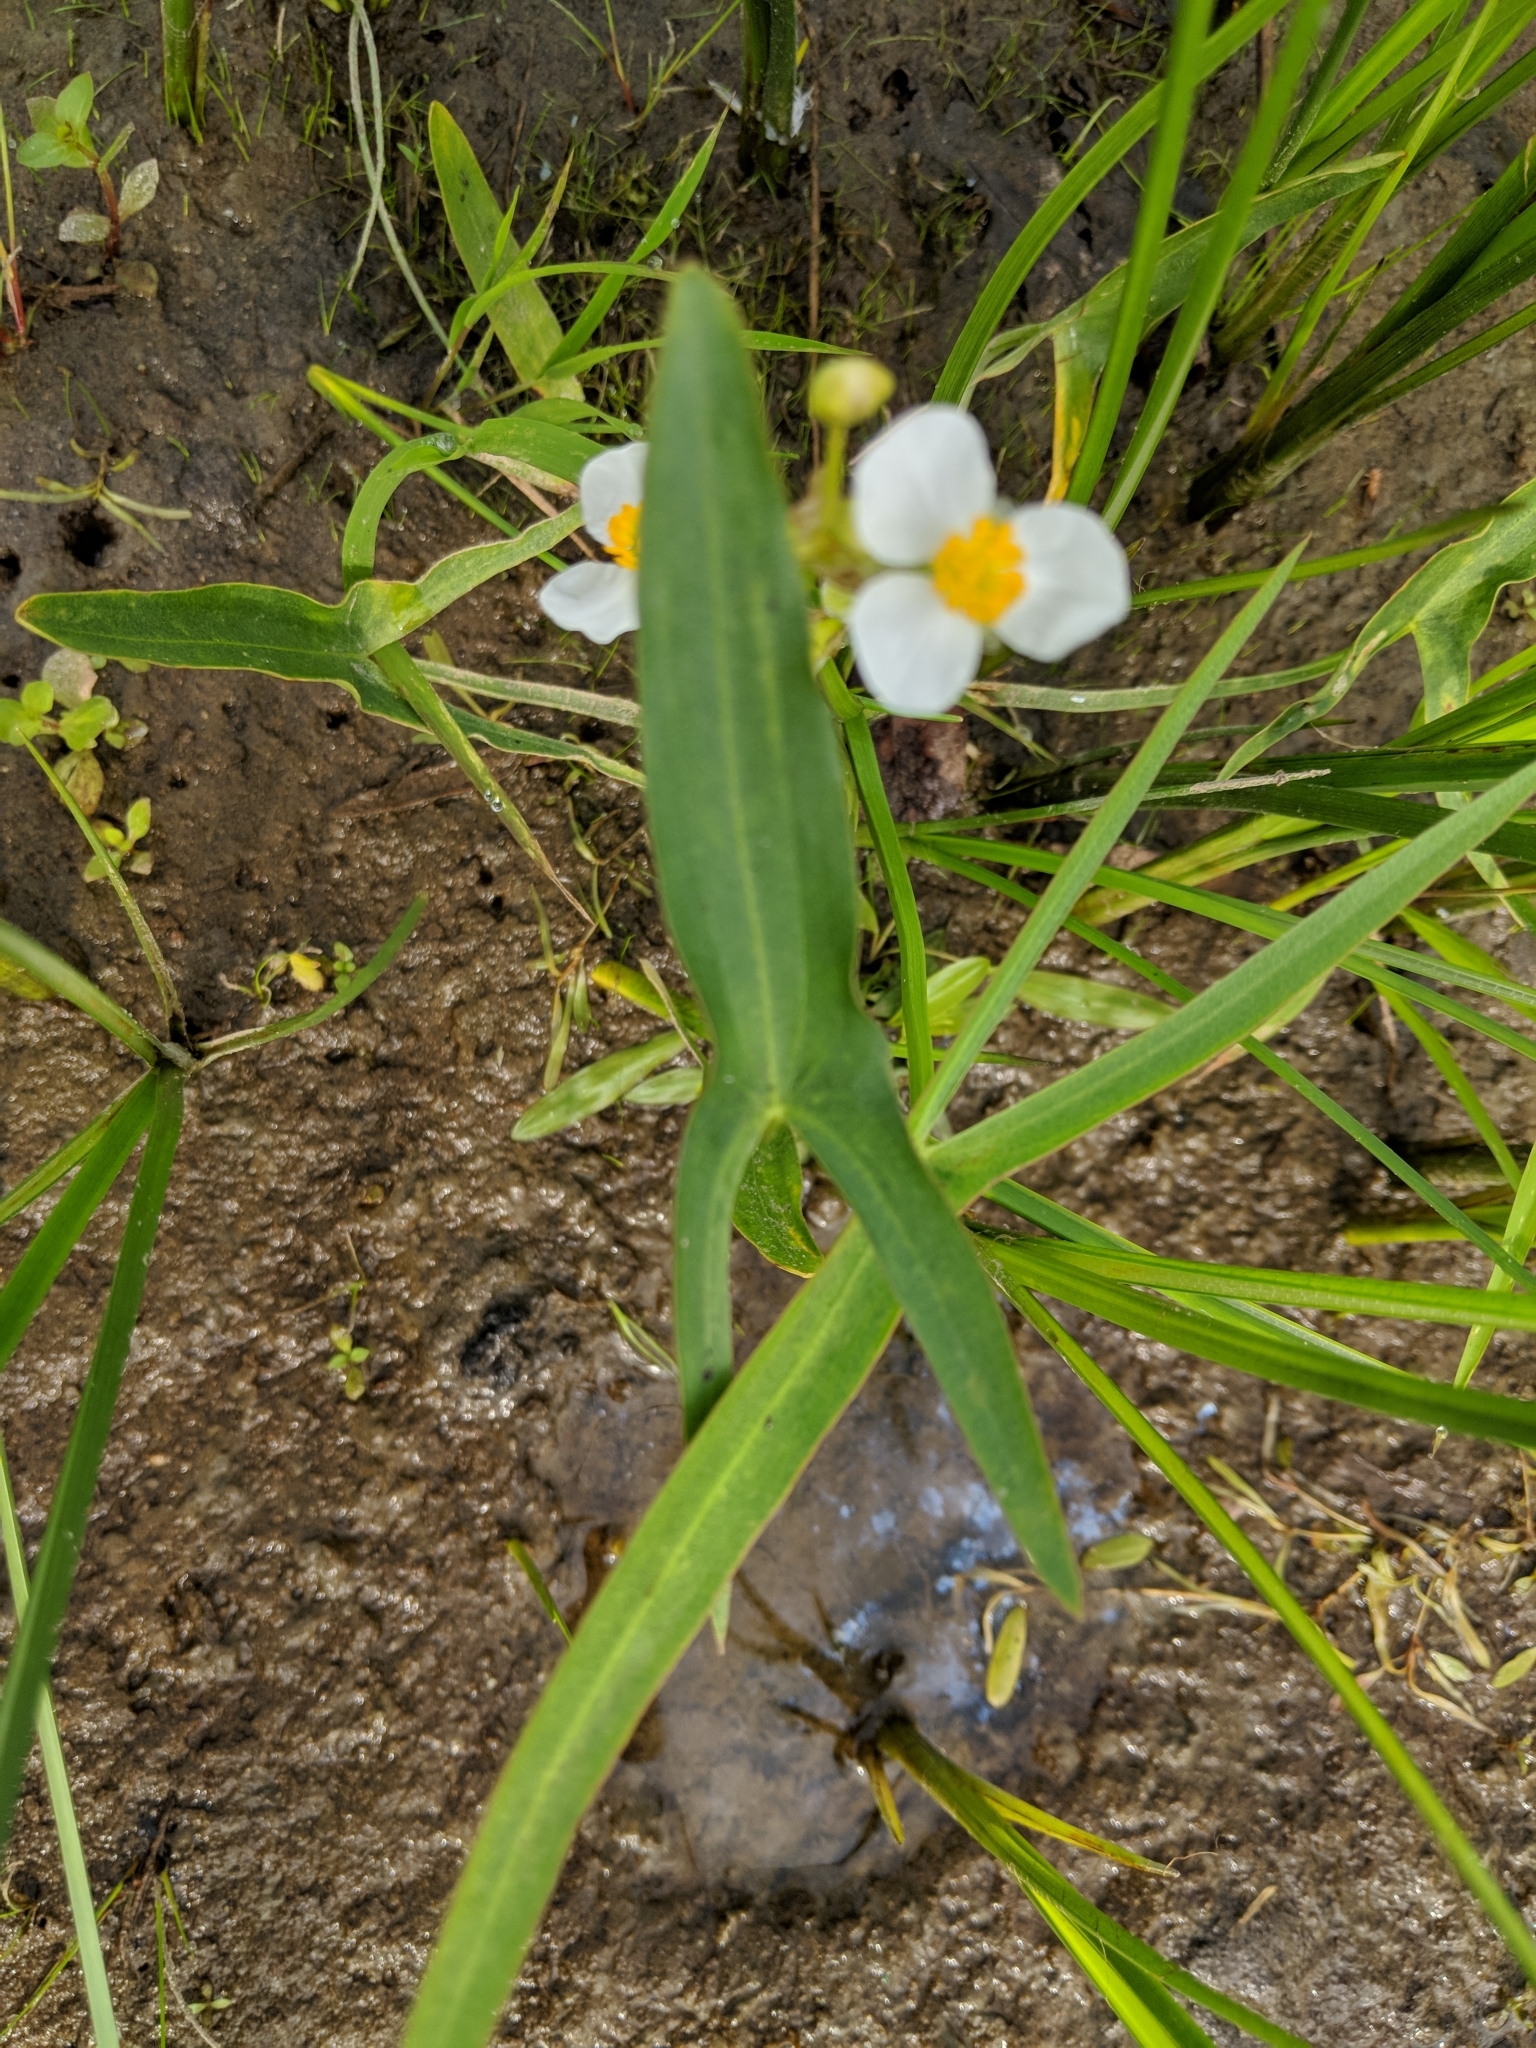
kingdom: Plantae
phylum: Tracheophyta
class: Liliopsida
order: Alismatales
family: Alismataceae
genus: Sagittaria
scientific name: Sagittaria latifolia
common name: Duck-potato
